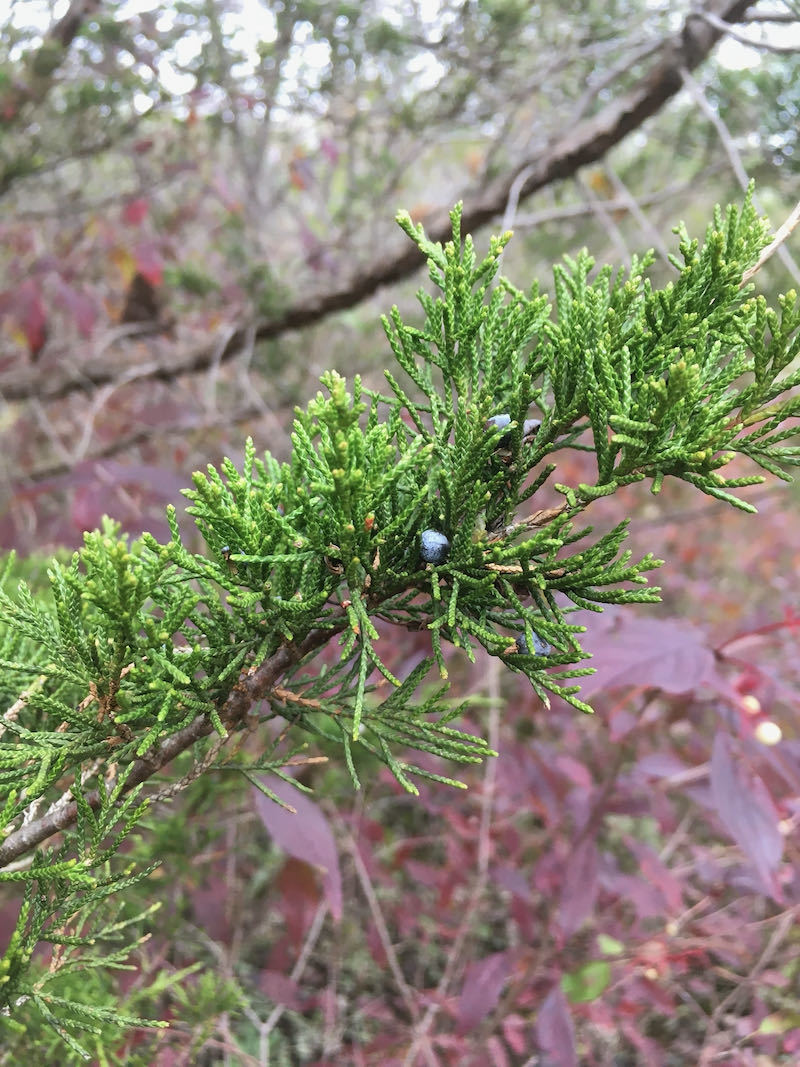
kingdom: Plantae
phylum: Tracheophyta
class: Pinopsida
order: Pinales
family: Cupressaceae
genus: Juniperus
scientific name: Juniperus virginiana
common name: Red juniper
